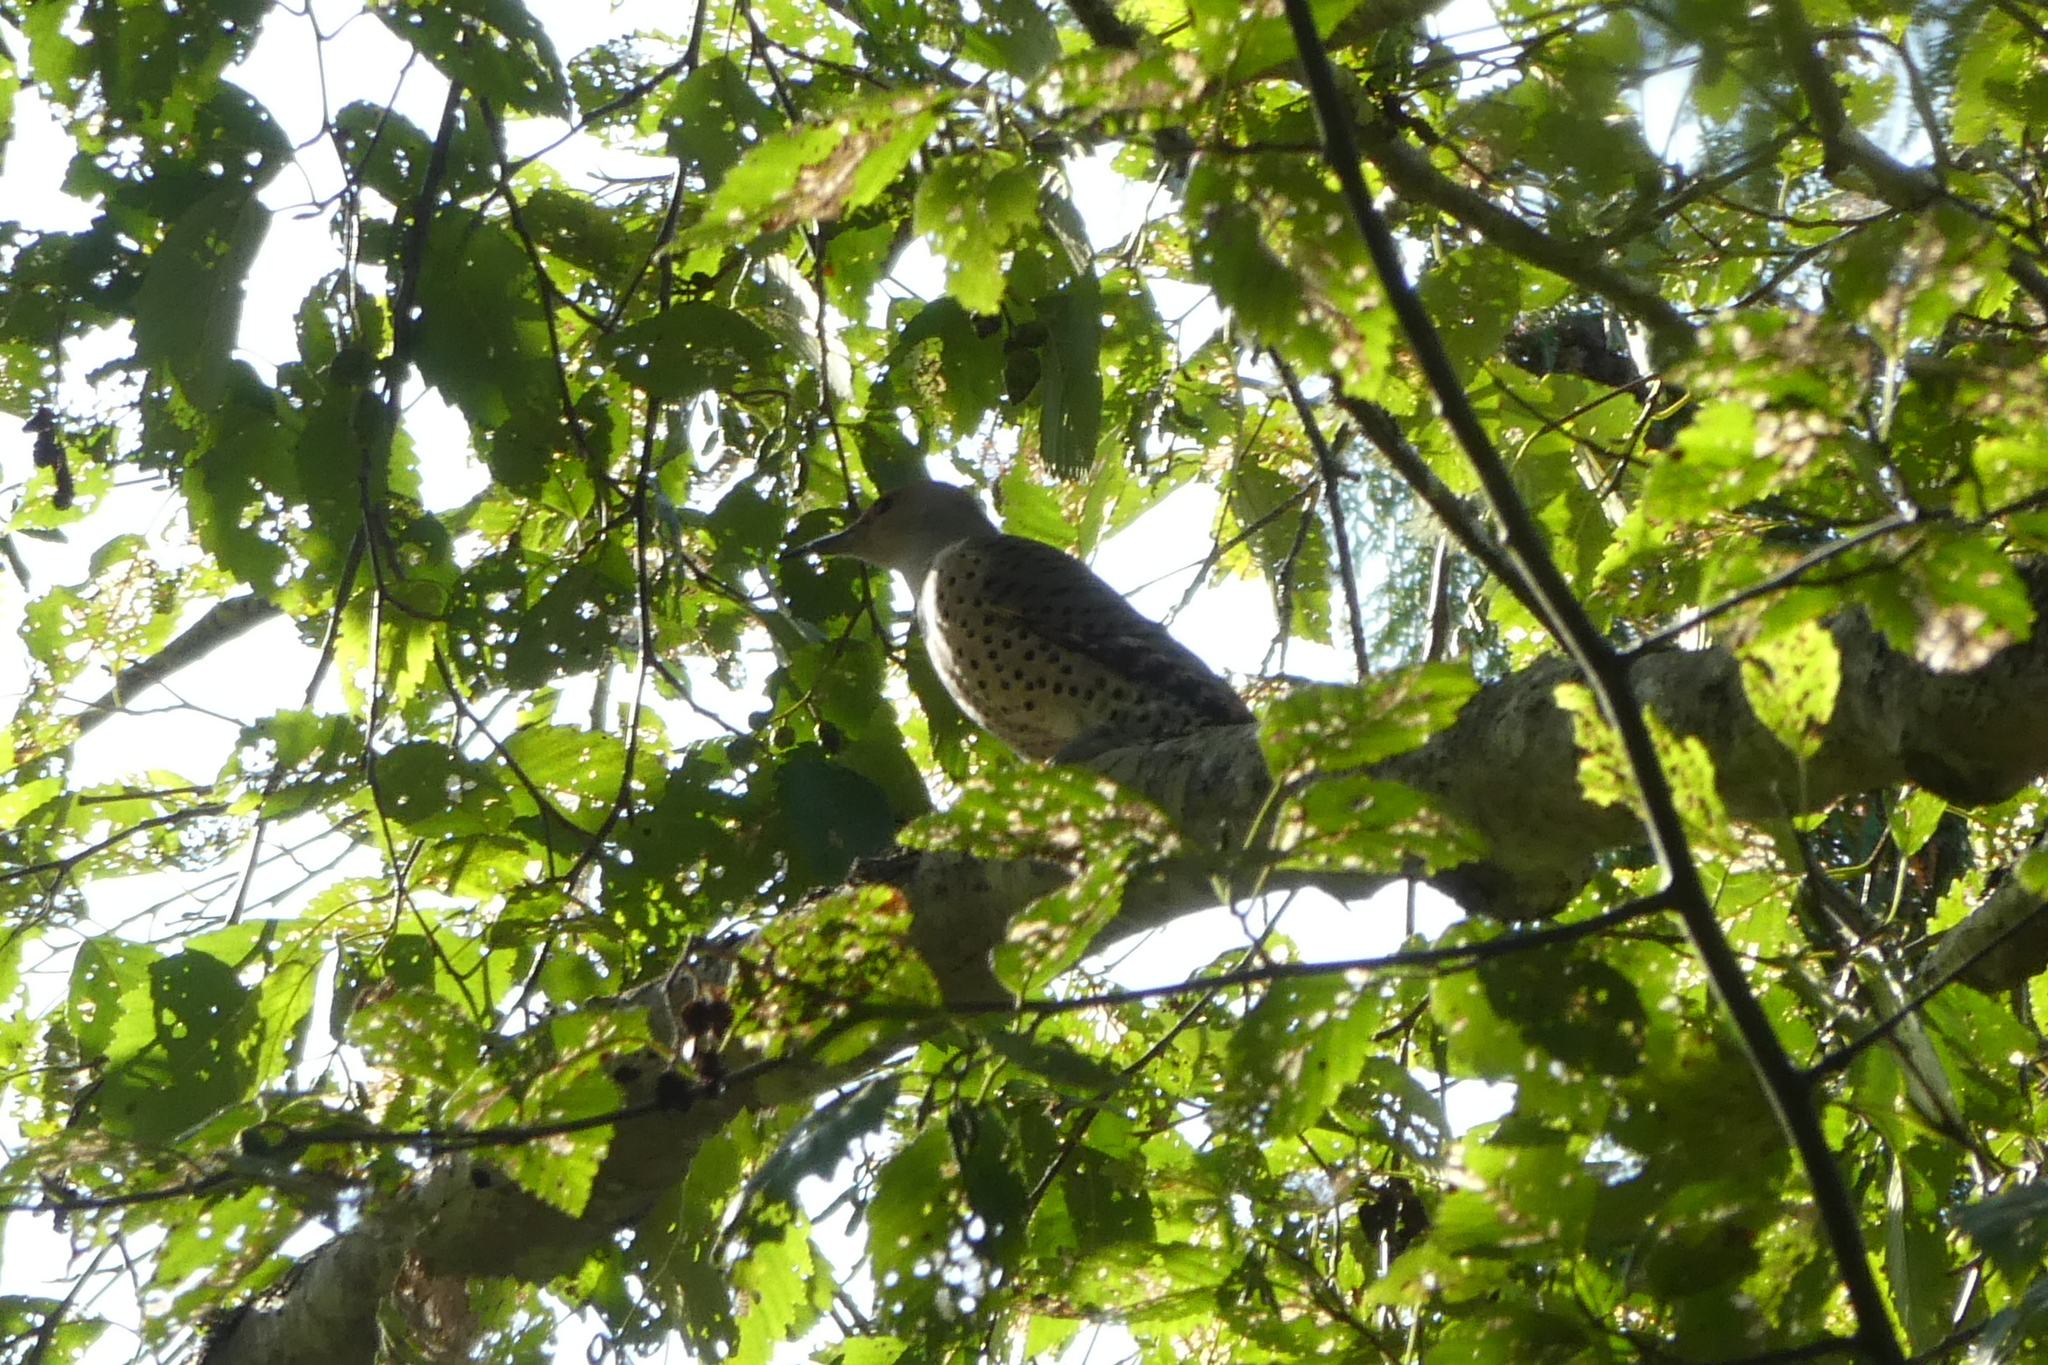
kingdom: Animalia
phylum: Chordata
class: Aves
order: Piciformes
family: Picidae
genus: Colaptes
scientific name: Colaptes auratus
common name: Northern flicker
